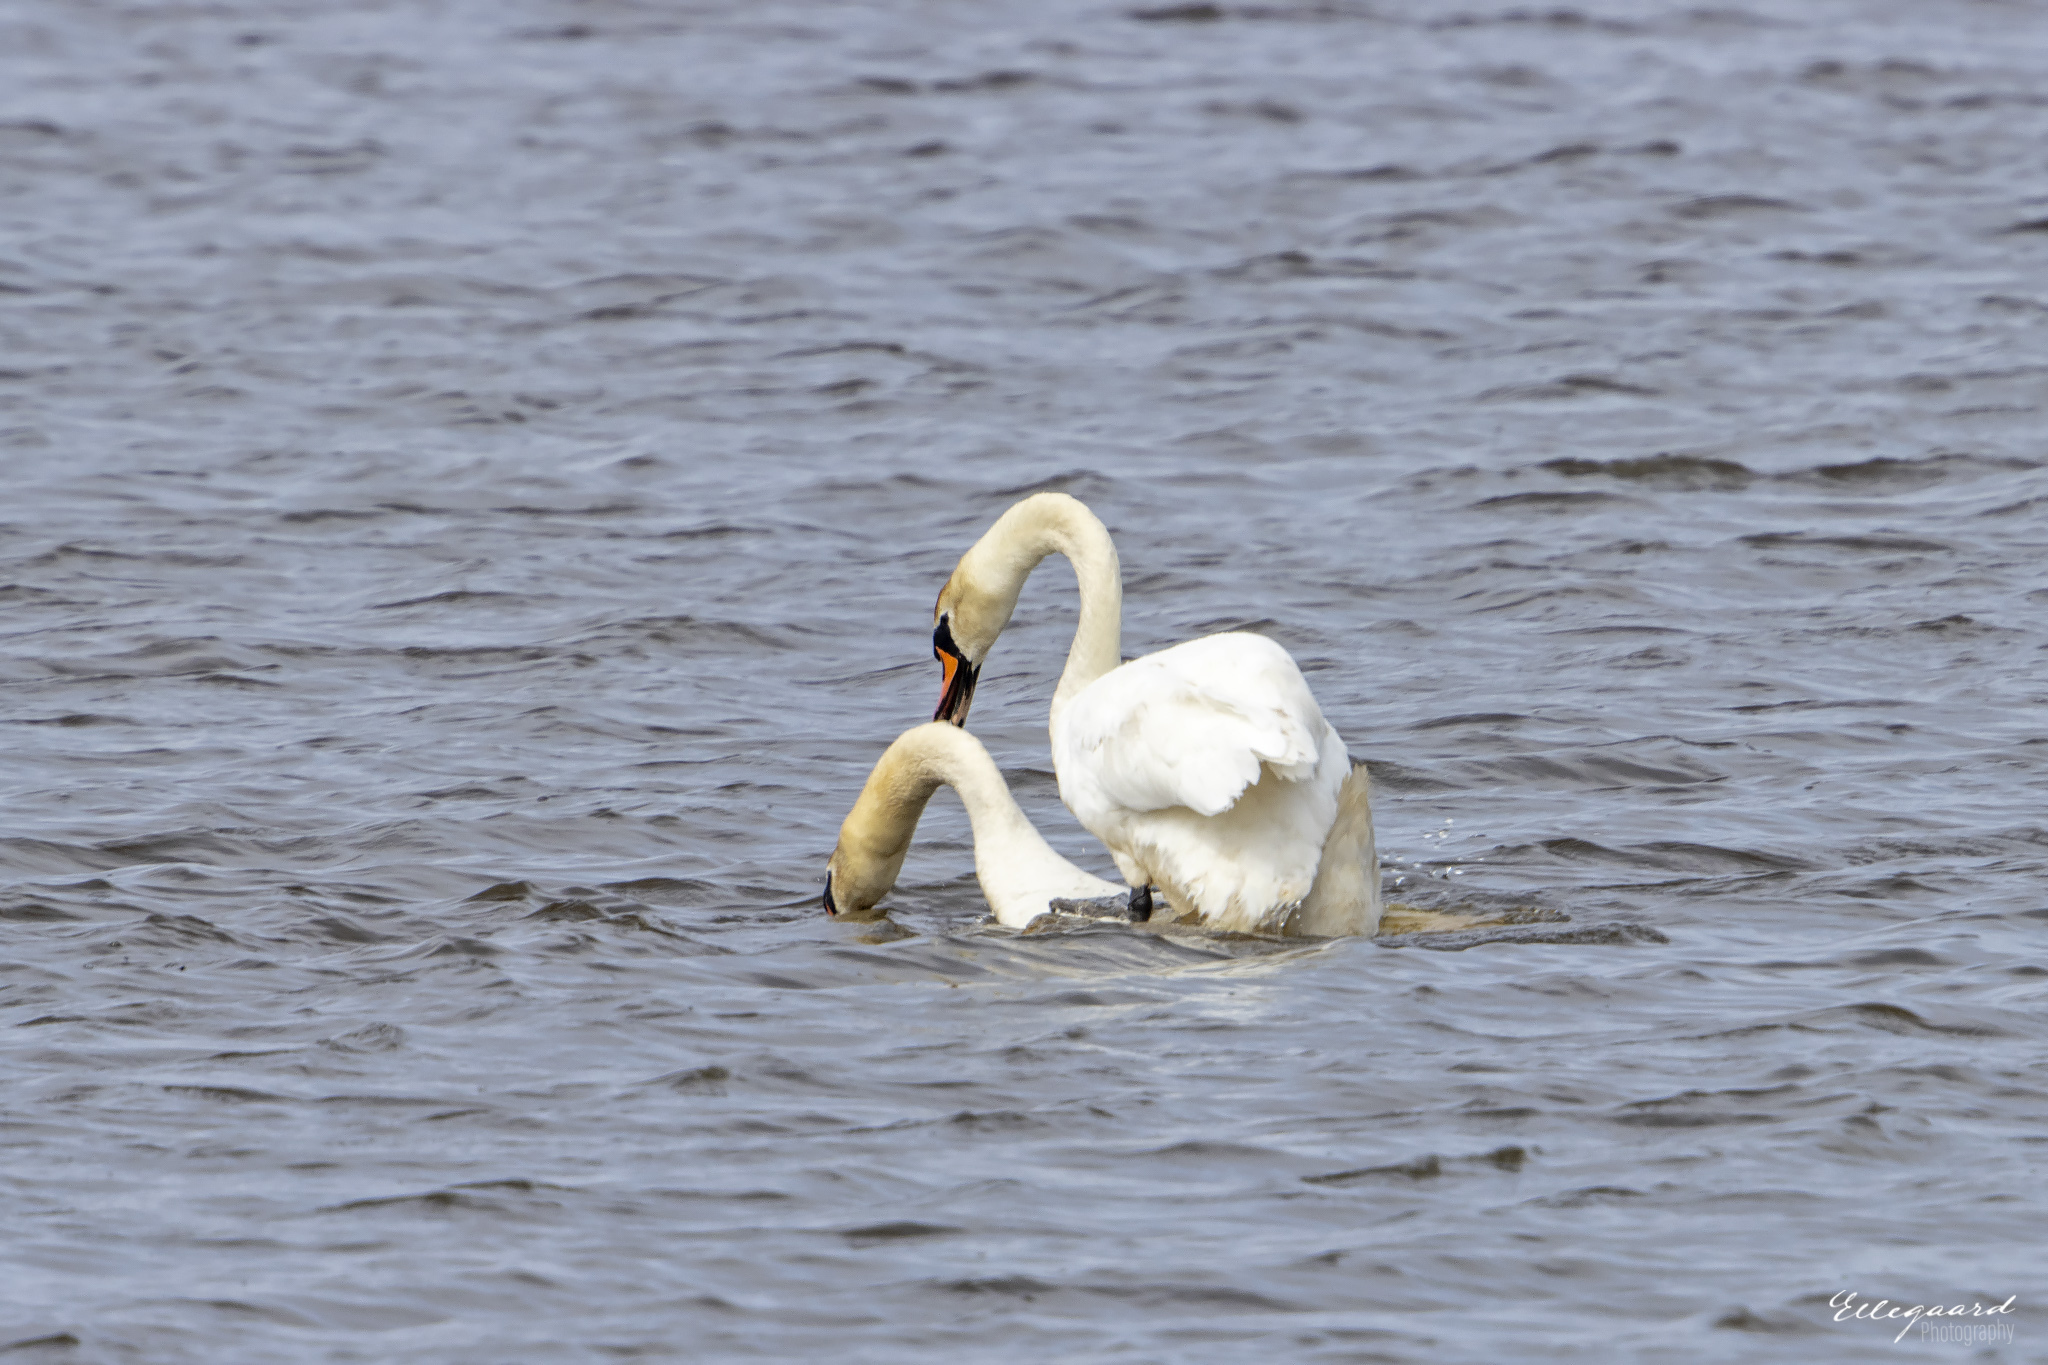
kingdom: Animalia
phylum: Chordata
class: Aves
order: Anseriformes
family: Anatidae
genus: Cygnus
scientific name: Cygnus olor
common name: Mute swan
